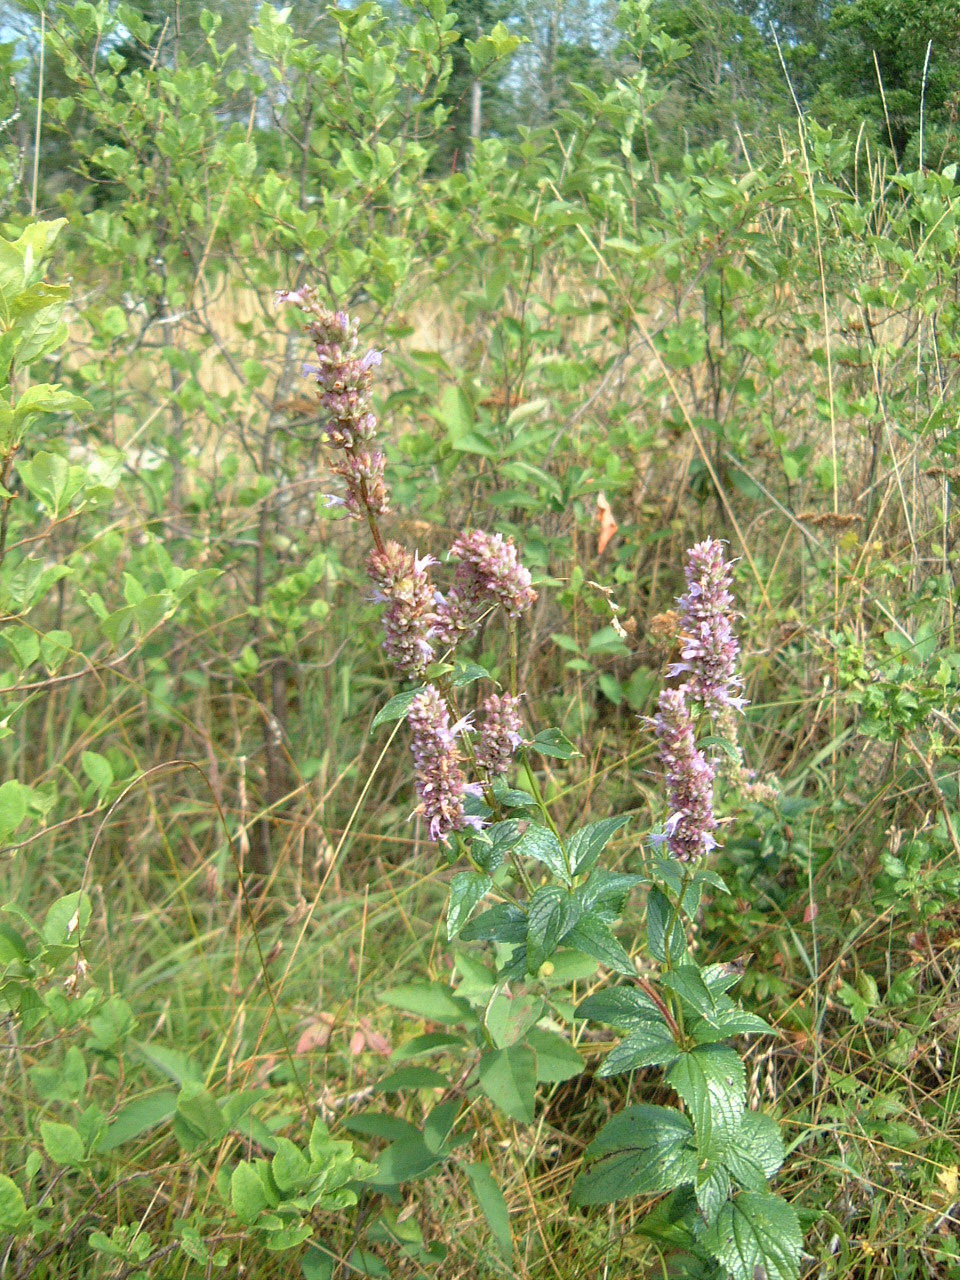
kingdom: Plantae
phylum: Tracheophyta
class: Magnoliopsida
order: Lamiales
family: Lamiaceae
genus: Agastache
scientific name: Agastache foeniculum
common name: Anise hyssop
